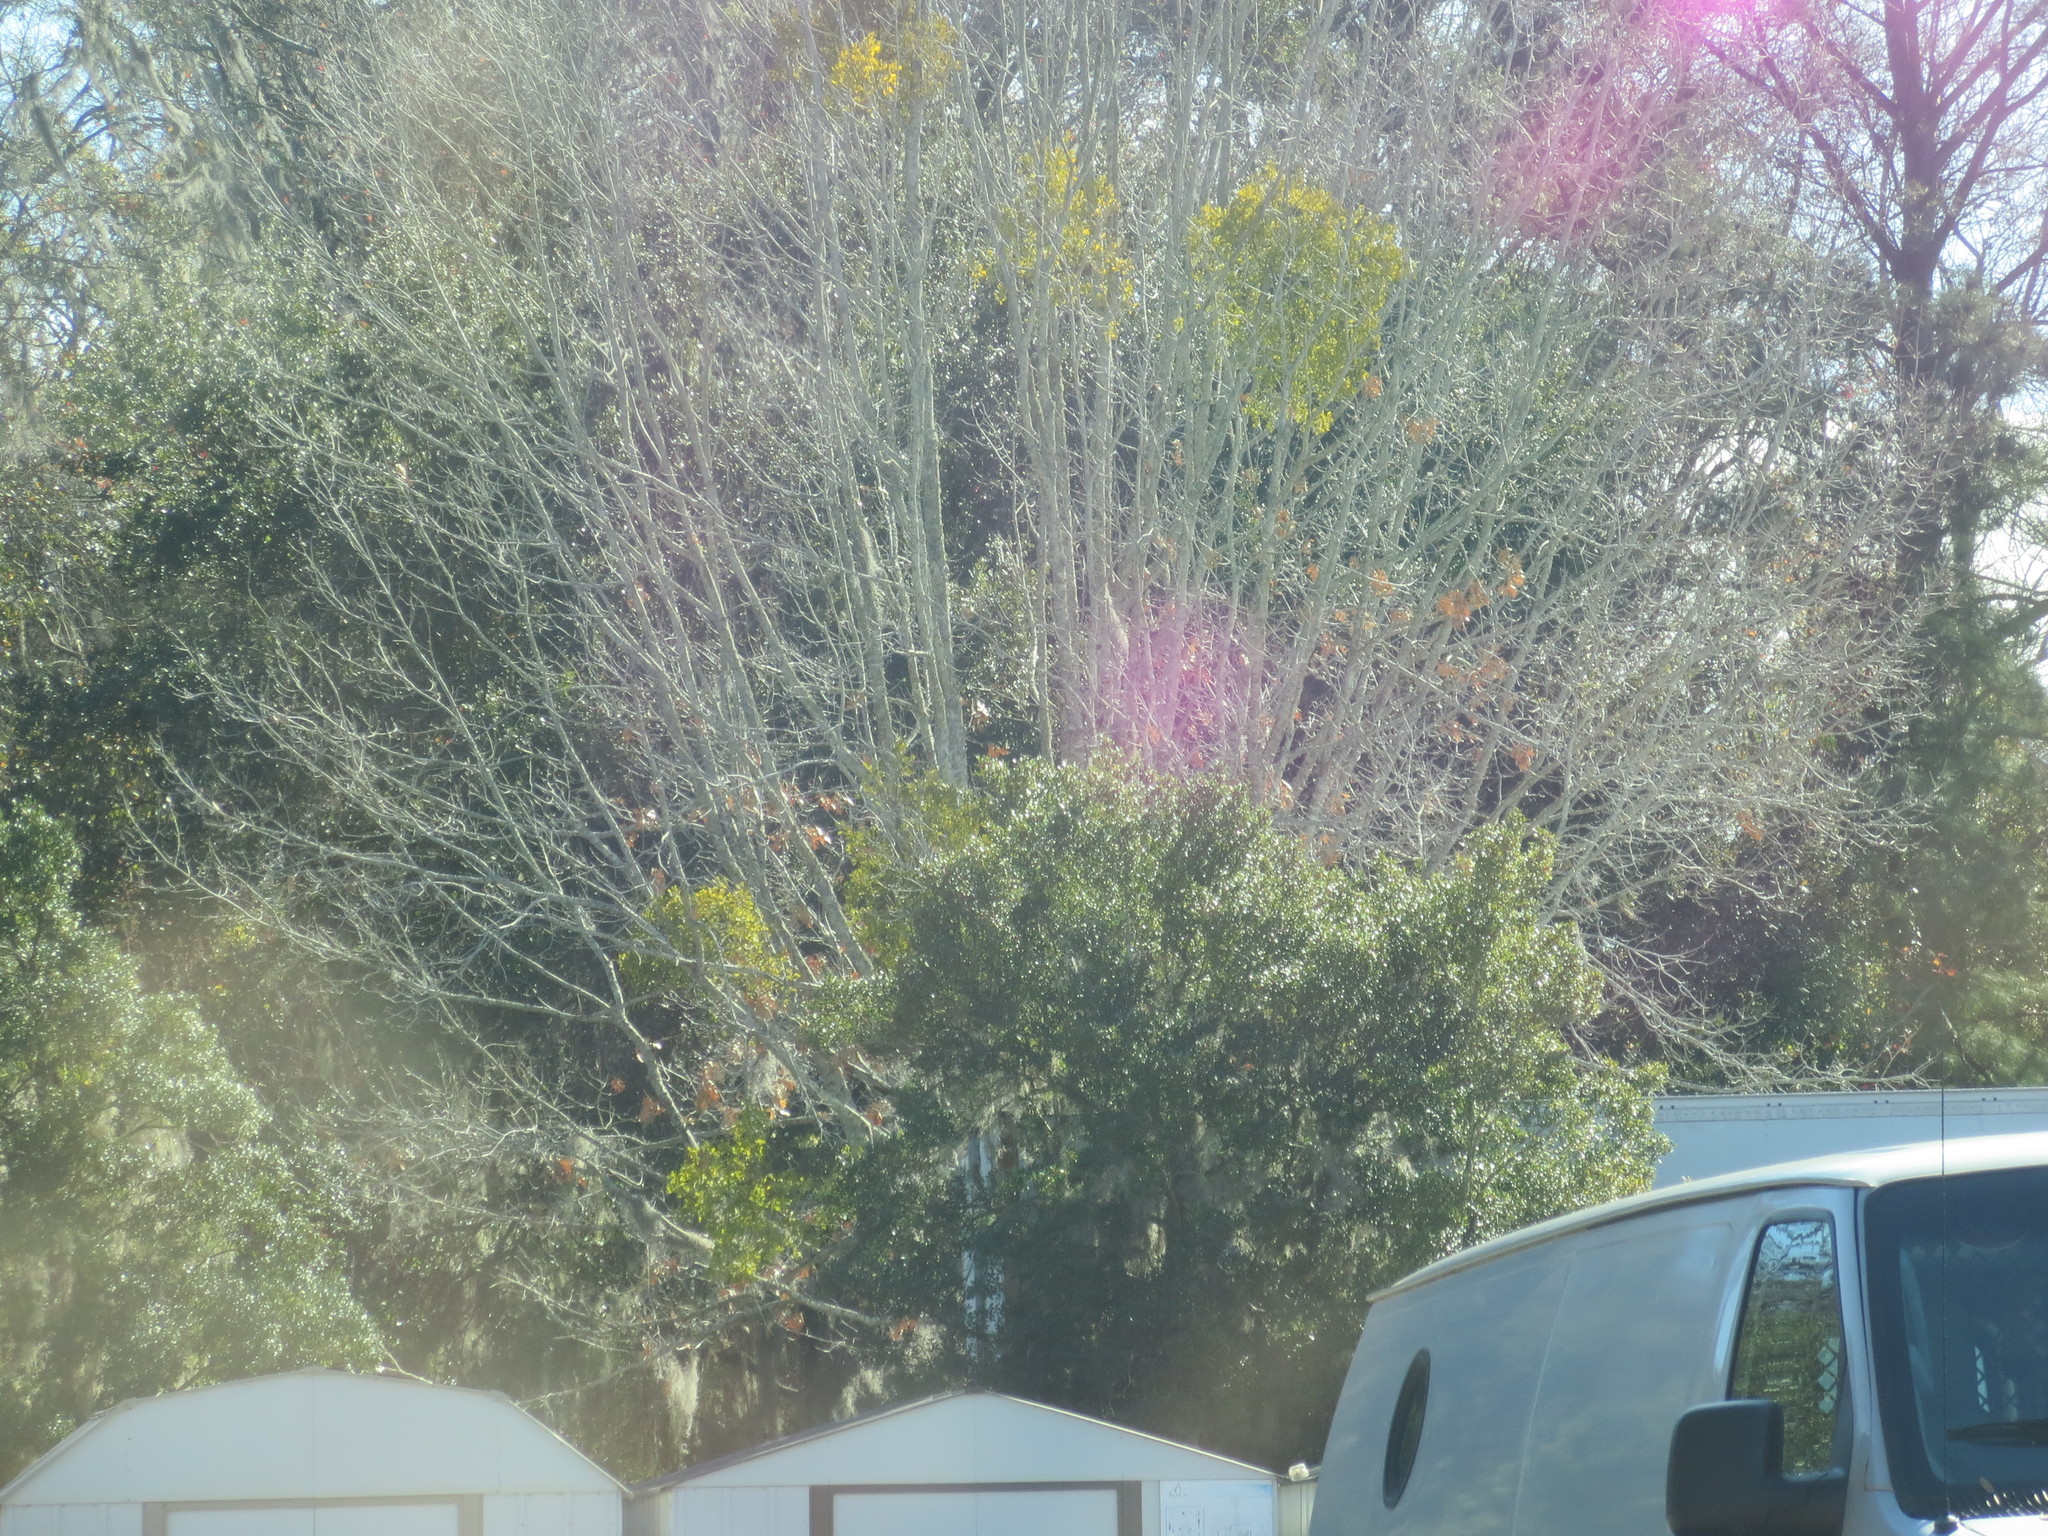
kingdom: Plantae
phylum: Tracheophyta
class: Magnoliopsida
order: Santalales
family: Viscaceae
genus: Phoradendron
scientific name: Phoradendron leucarpum
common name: Pacific mistletoe
